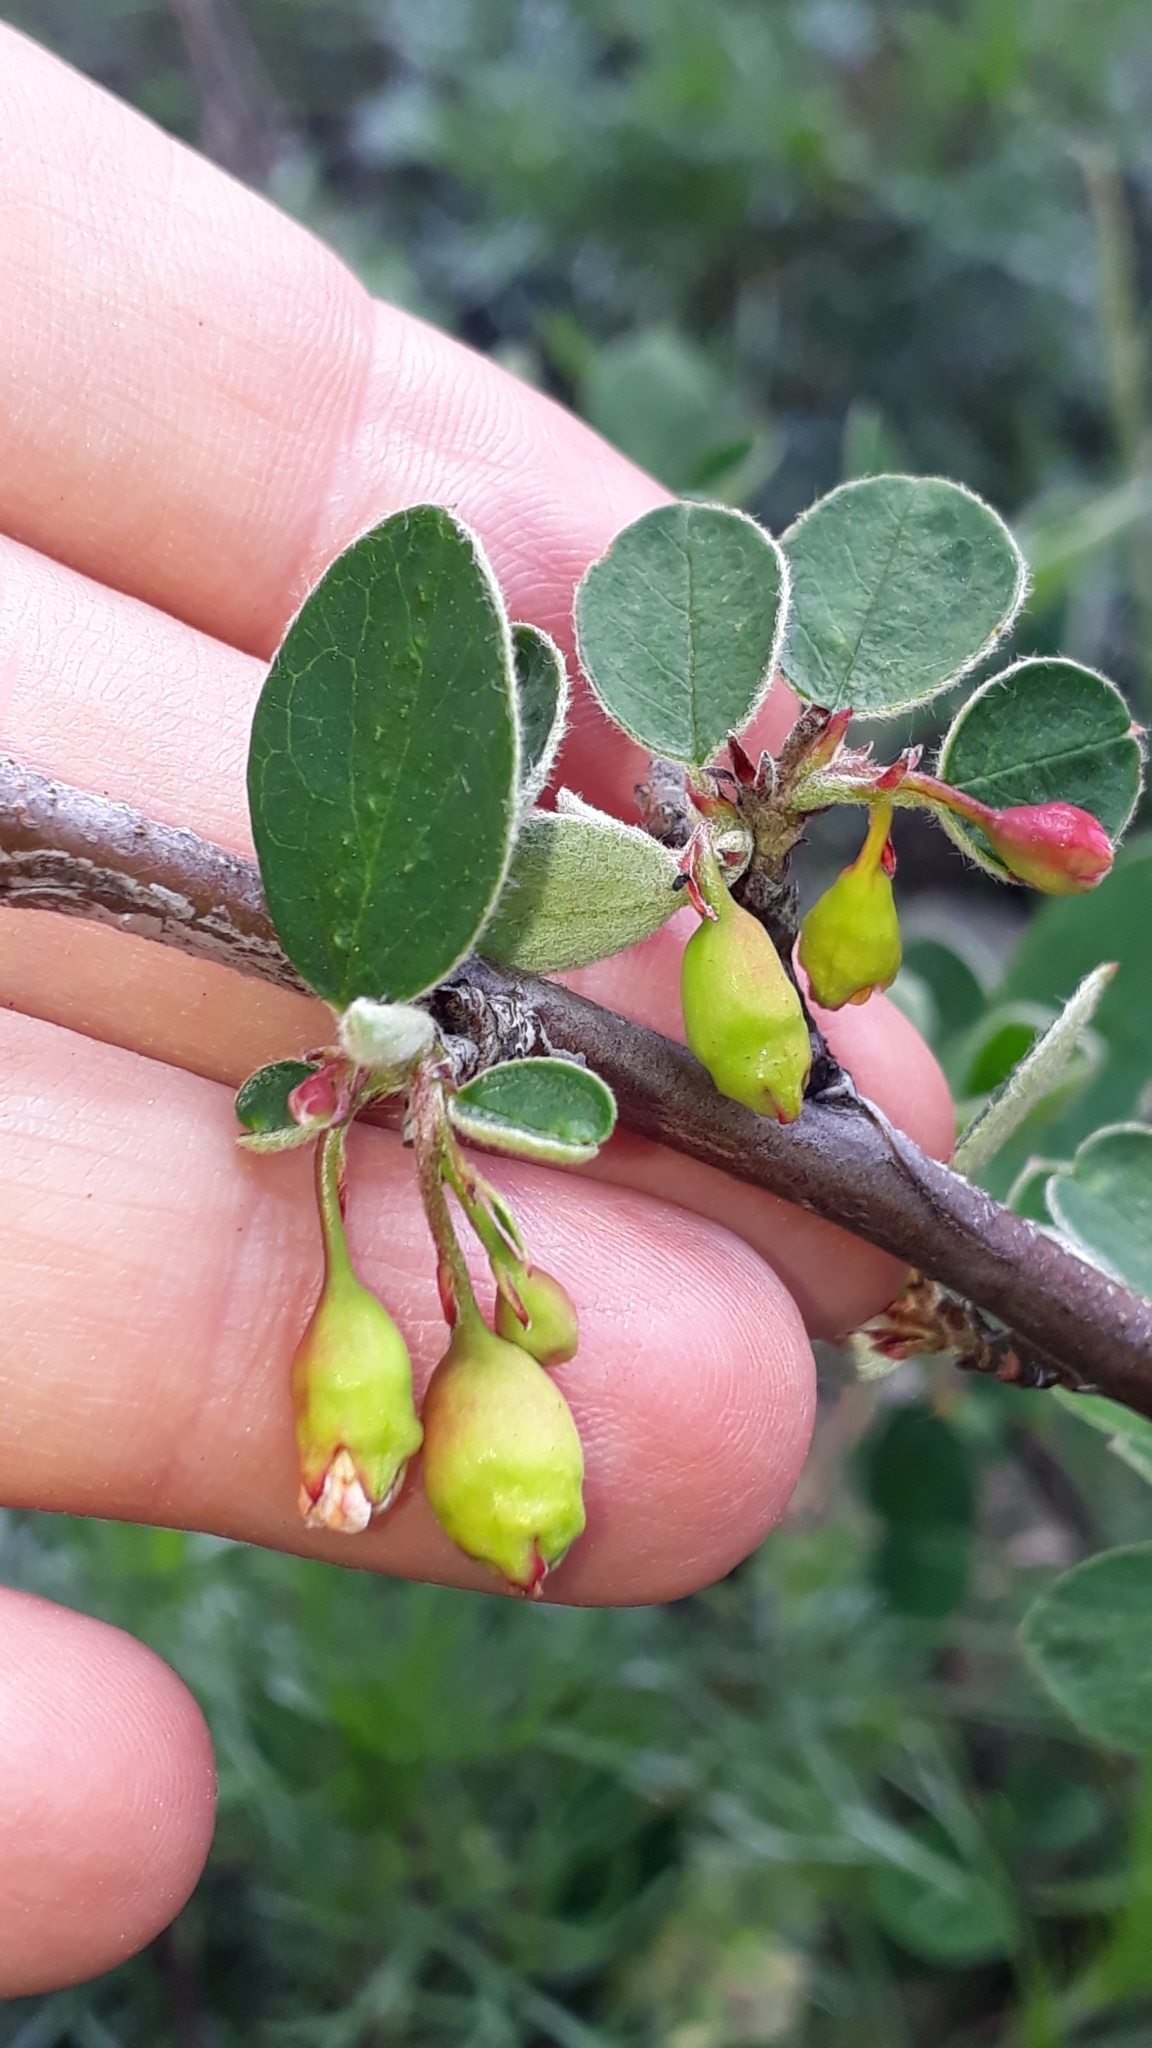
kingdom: Plantae
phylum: Tracheophyta
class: Magnoliopsida
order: Rosales
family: Rosaceae
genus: Cotoneaster
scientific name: Cotoneaster integerrimus
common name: Wild cotoneaster
